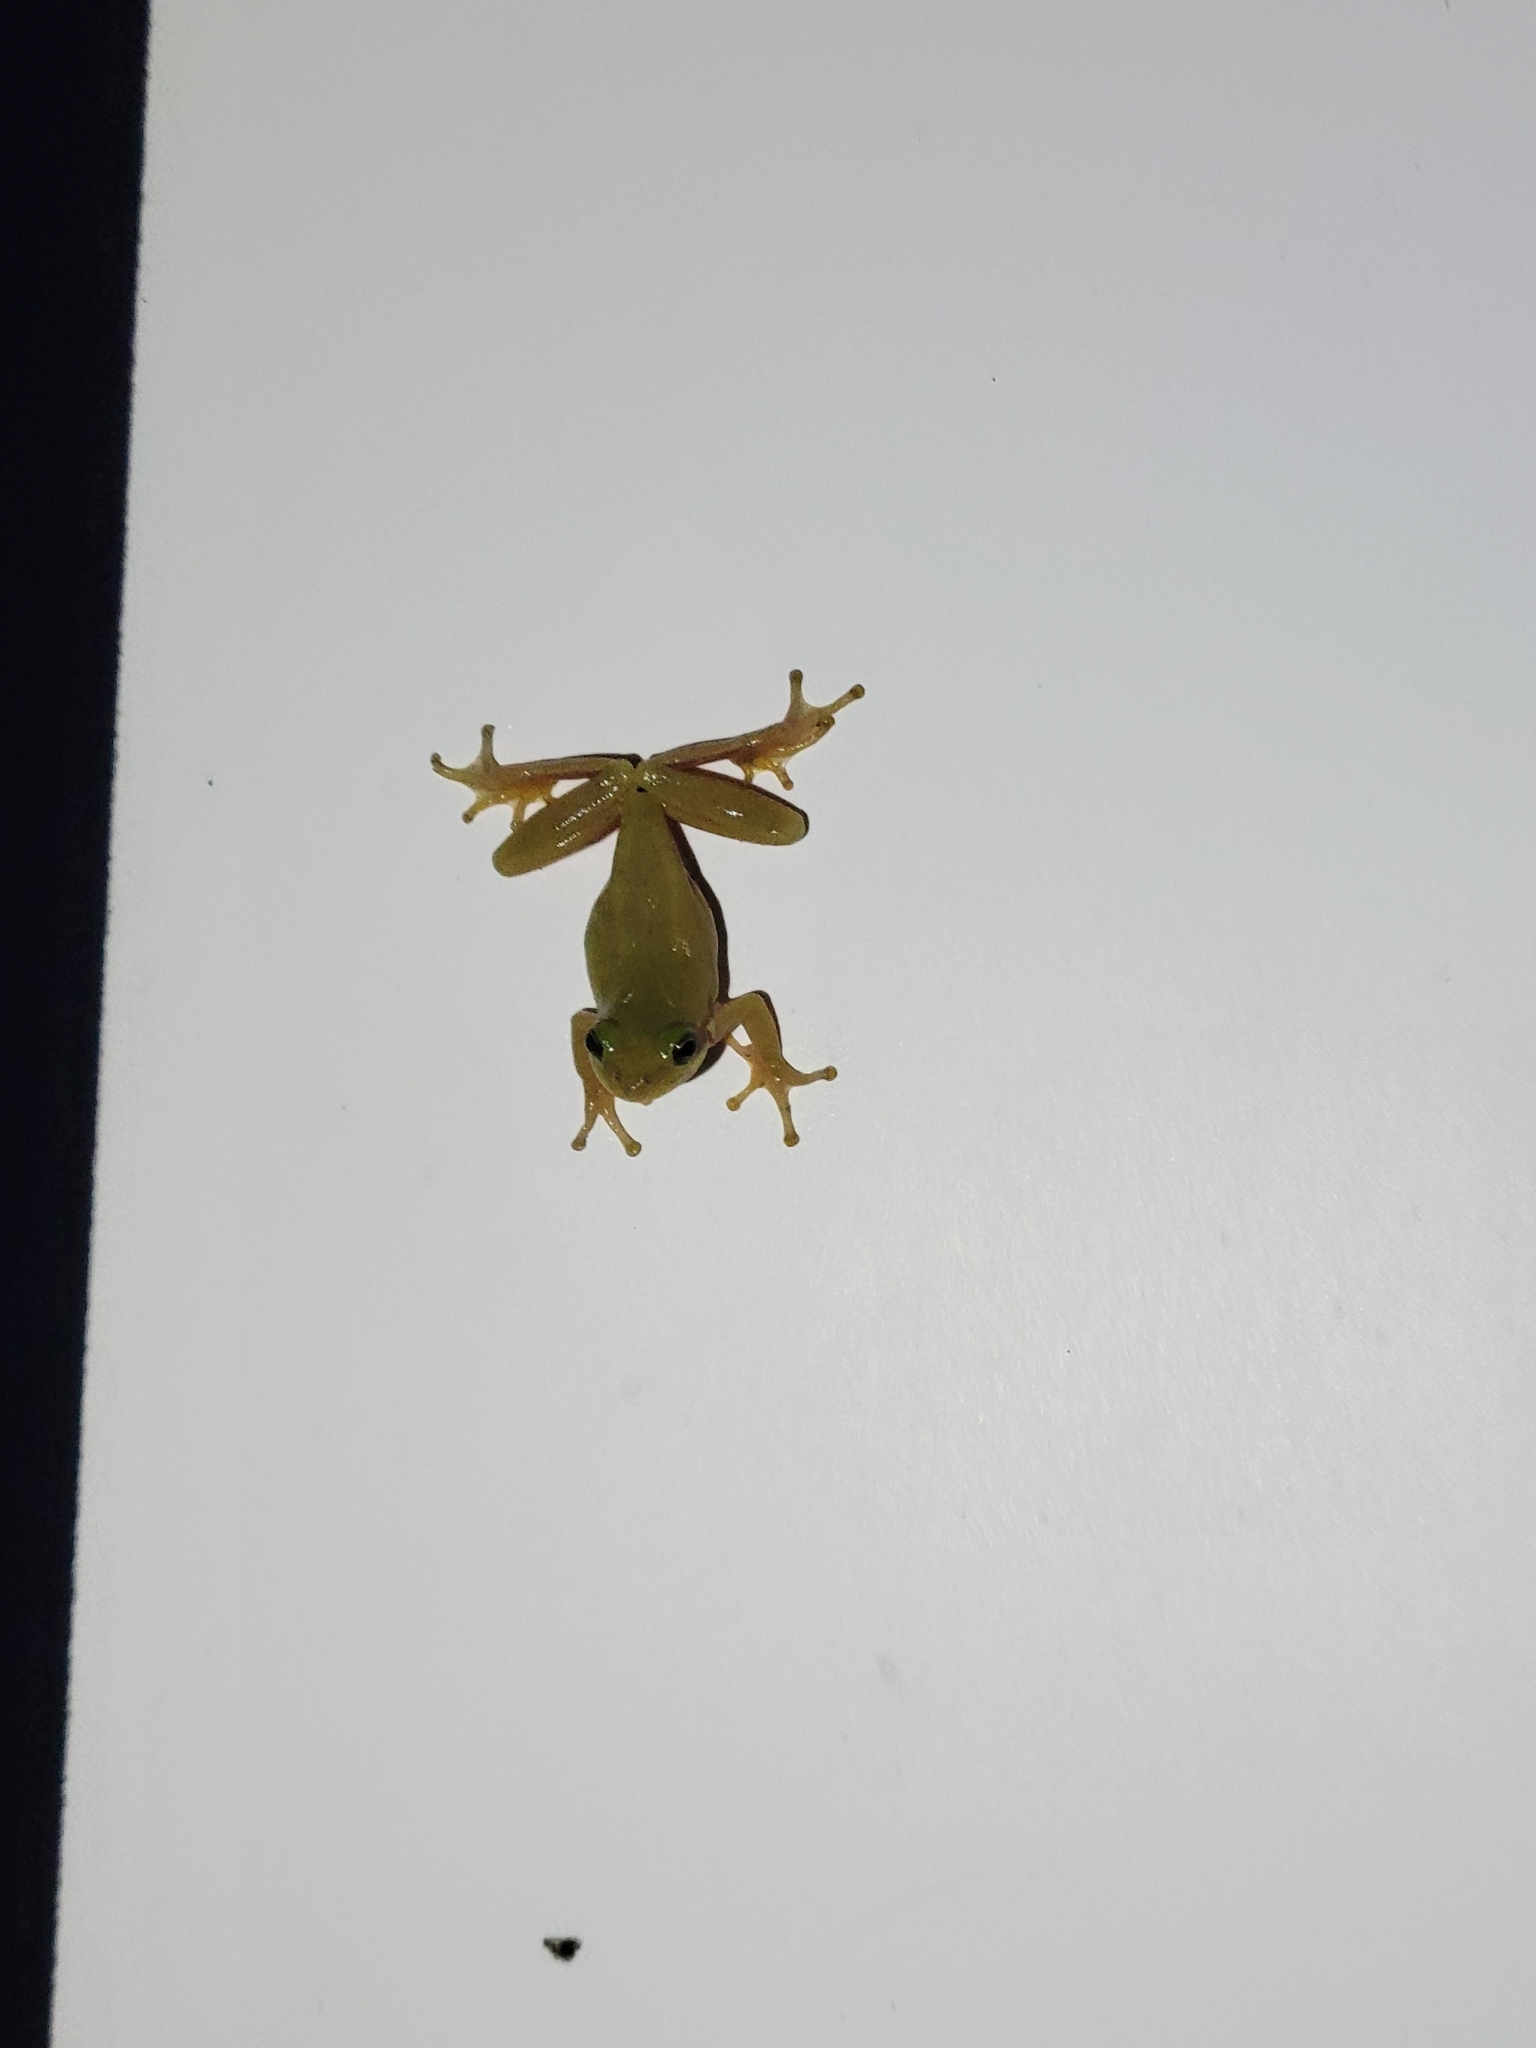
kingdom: Animalia
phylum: Chordata
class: Amphibia
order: Anura
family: Hylidae
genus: Dryophytes
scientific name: Dryophytes squirellus
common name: Squirrel treefrog
